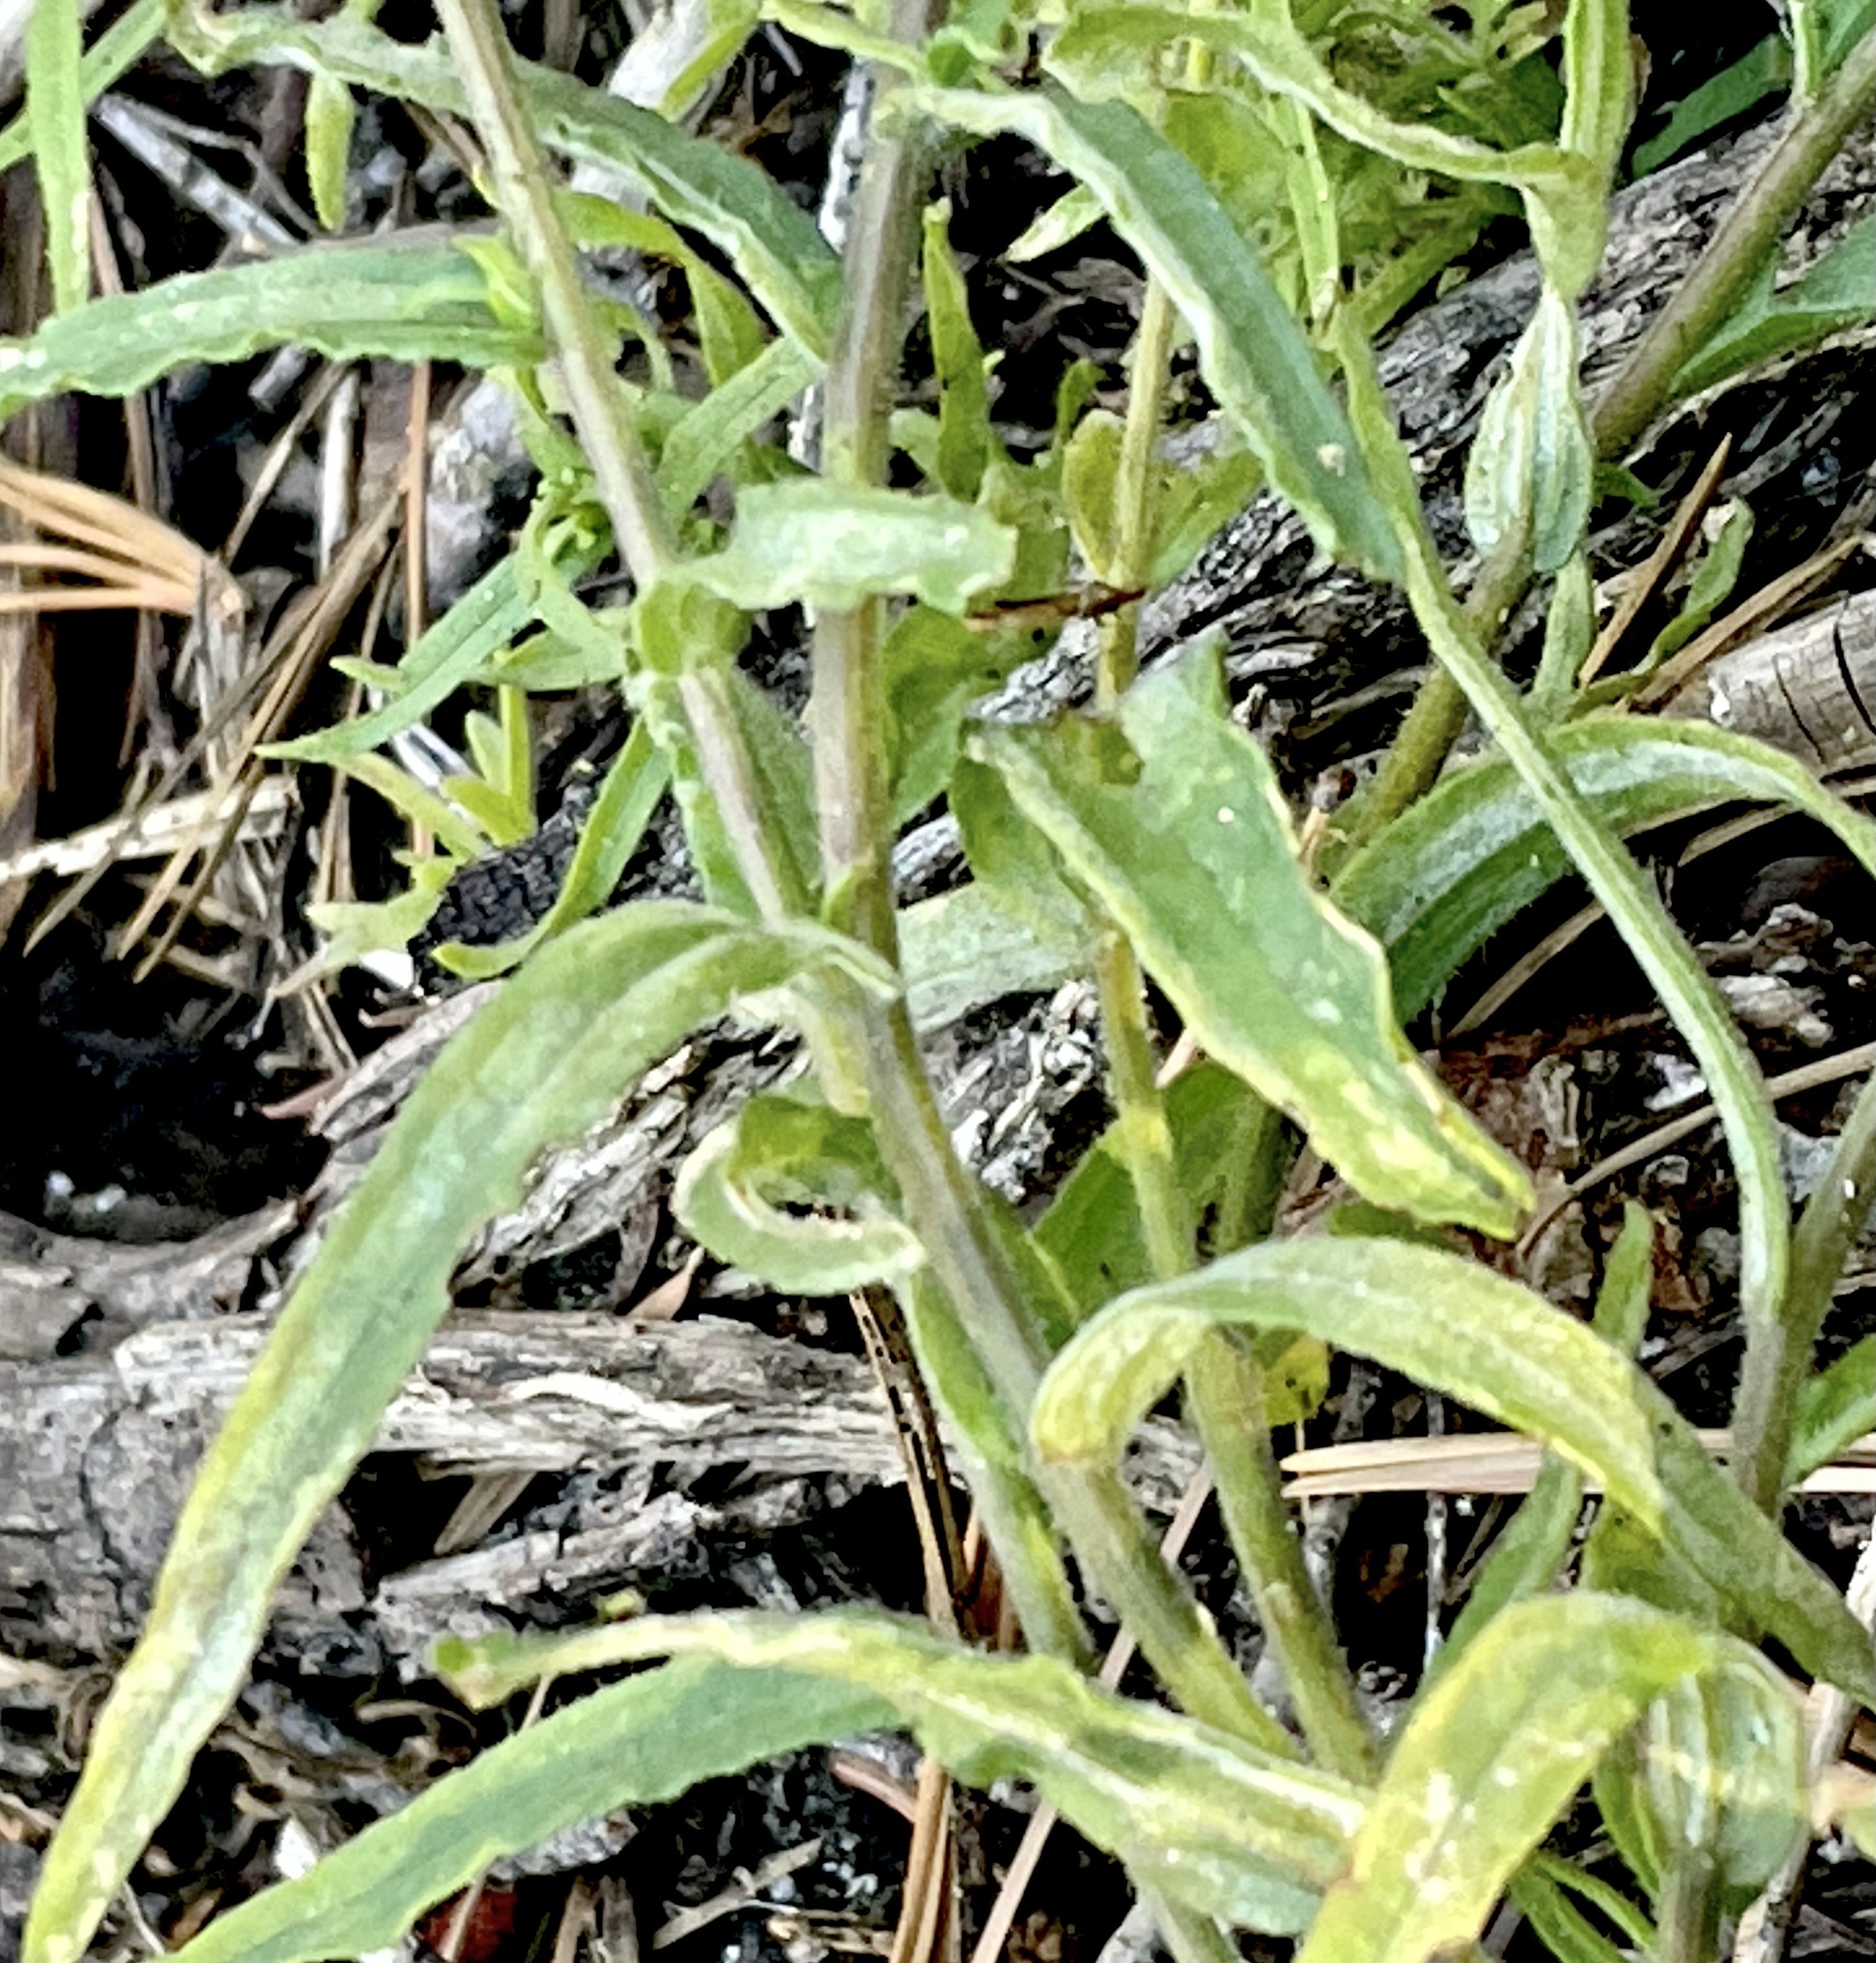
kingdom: Plantae
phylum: Tracheophyta
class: Magnoliopsida
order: Lamiales
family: Orobanchaceae
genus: Castilleja
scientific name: Castilleja disticha
